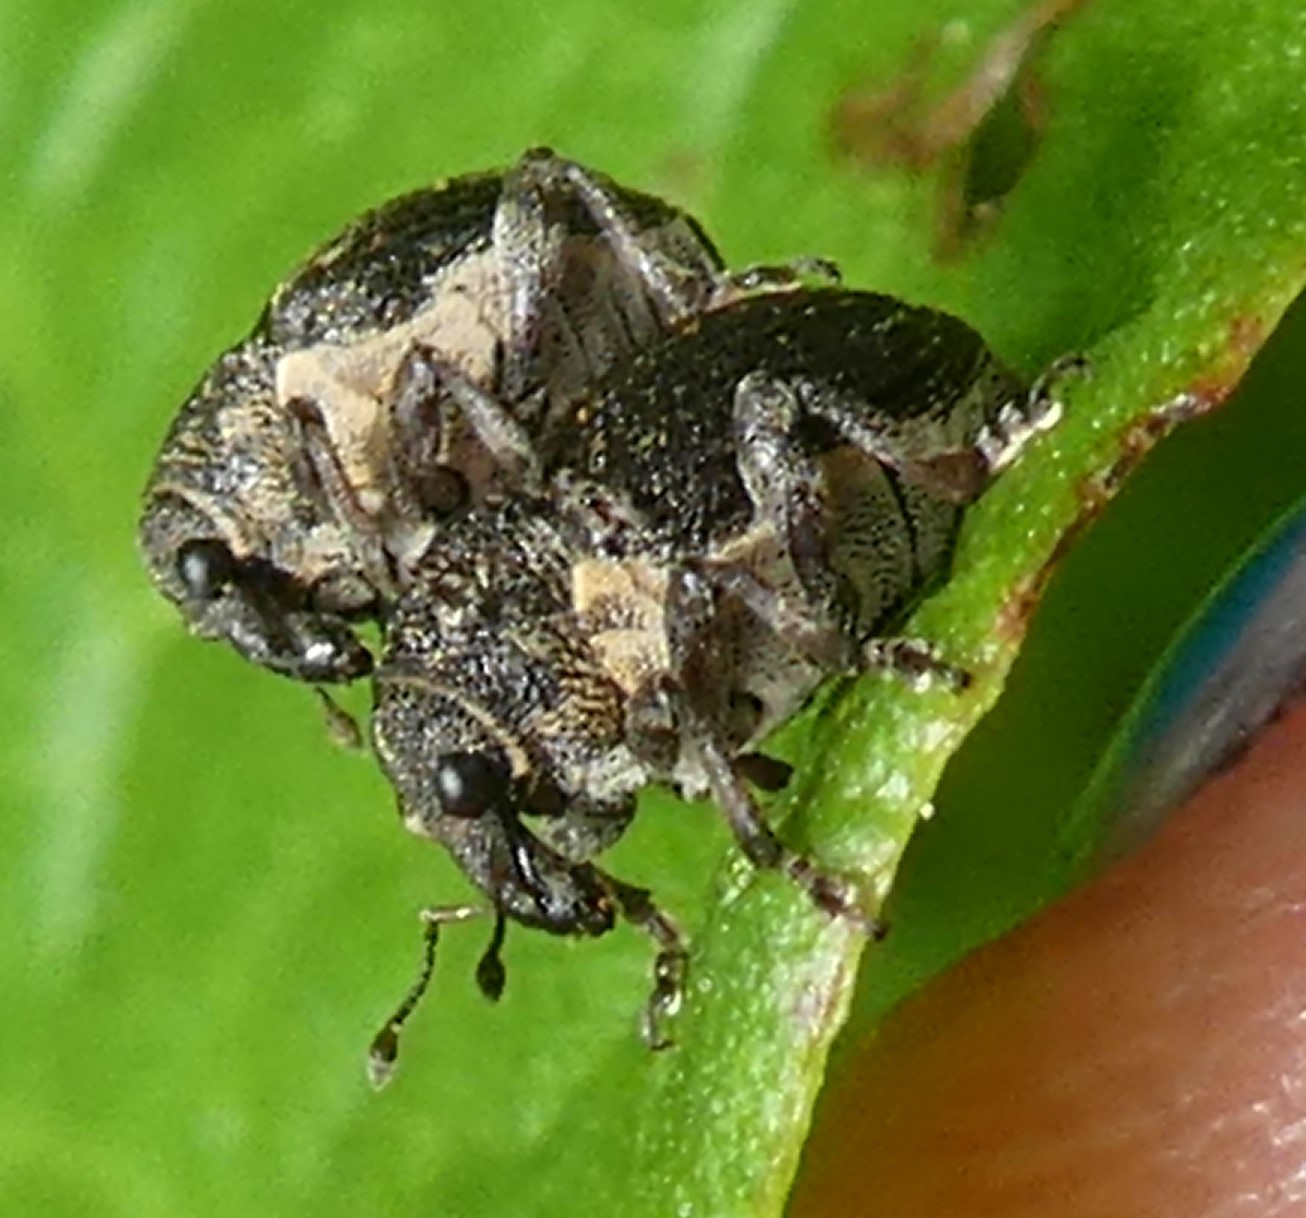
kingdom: Animalia
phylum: Arthropoda
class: Insecta
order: Coleoptera
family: Curculionidae
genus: Rhinoncus
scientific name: Rhinoncus leucostigma
